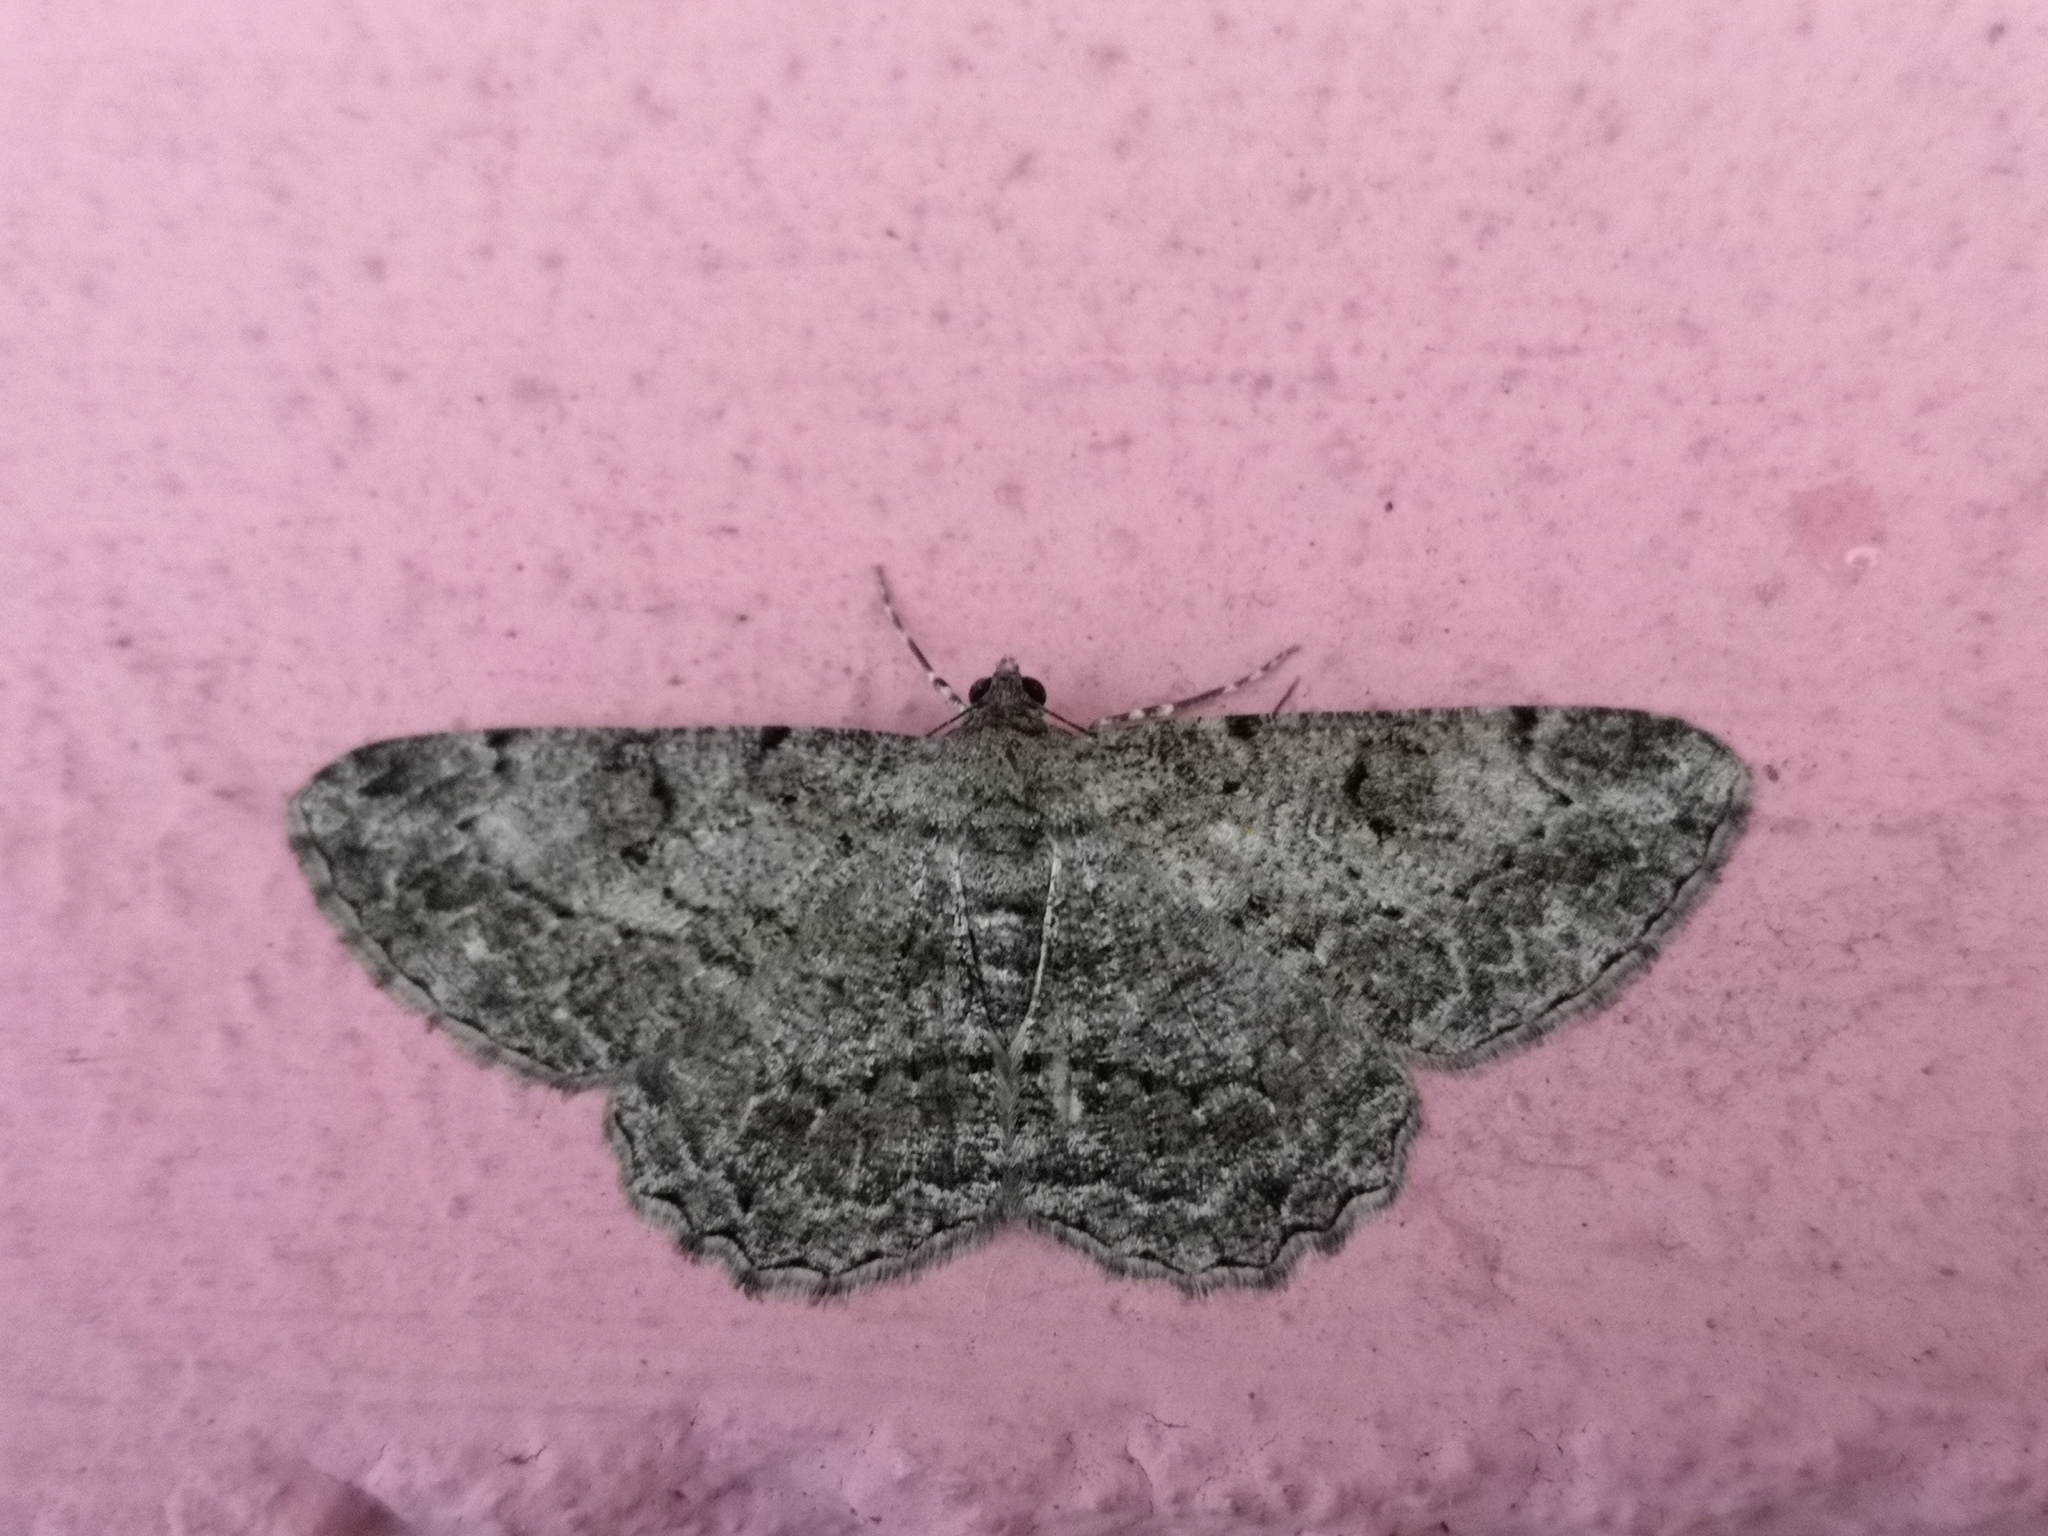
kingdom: Animalia
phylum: Arthropoda
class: Insecta
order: Lepidoptera
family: Geometridae
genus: Peribatodes
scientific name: Peribatodes rhomboidaria
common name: Willow beauty
